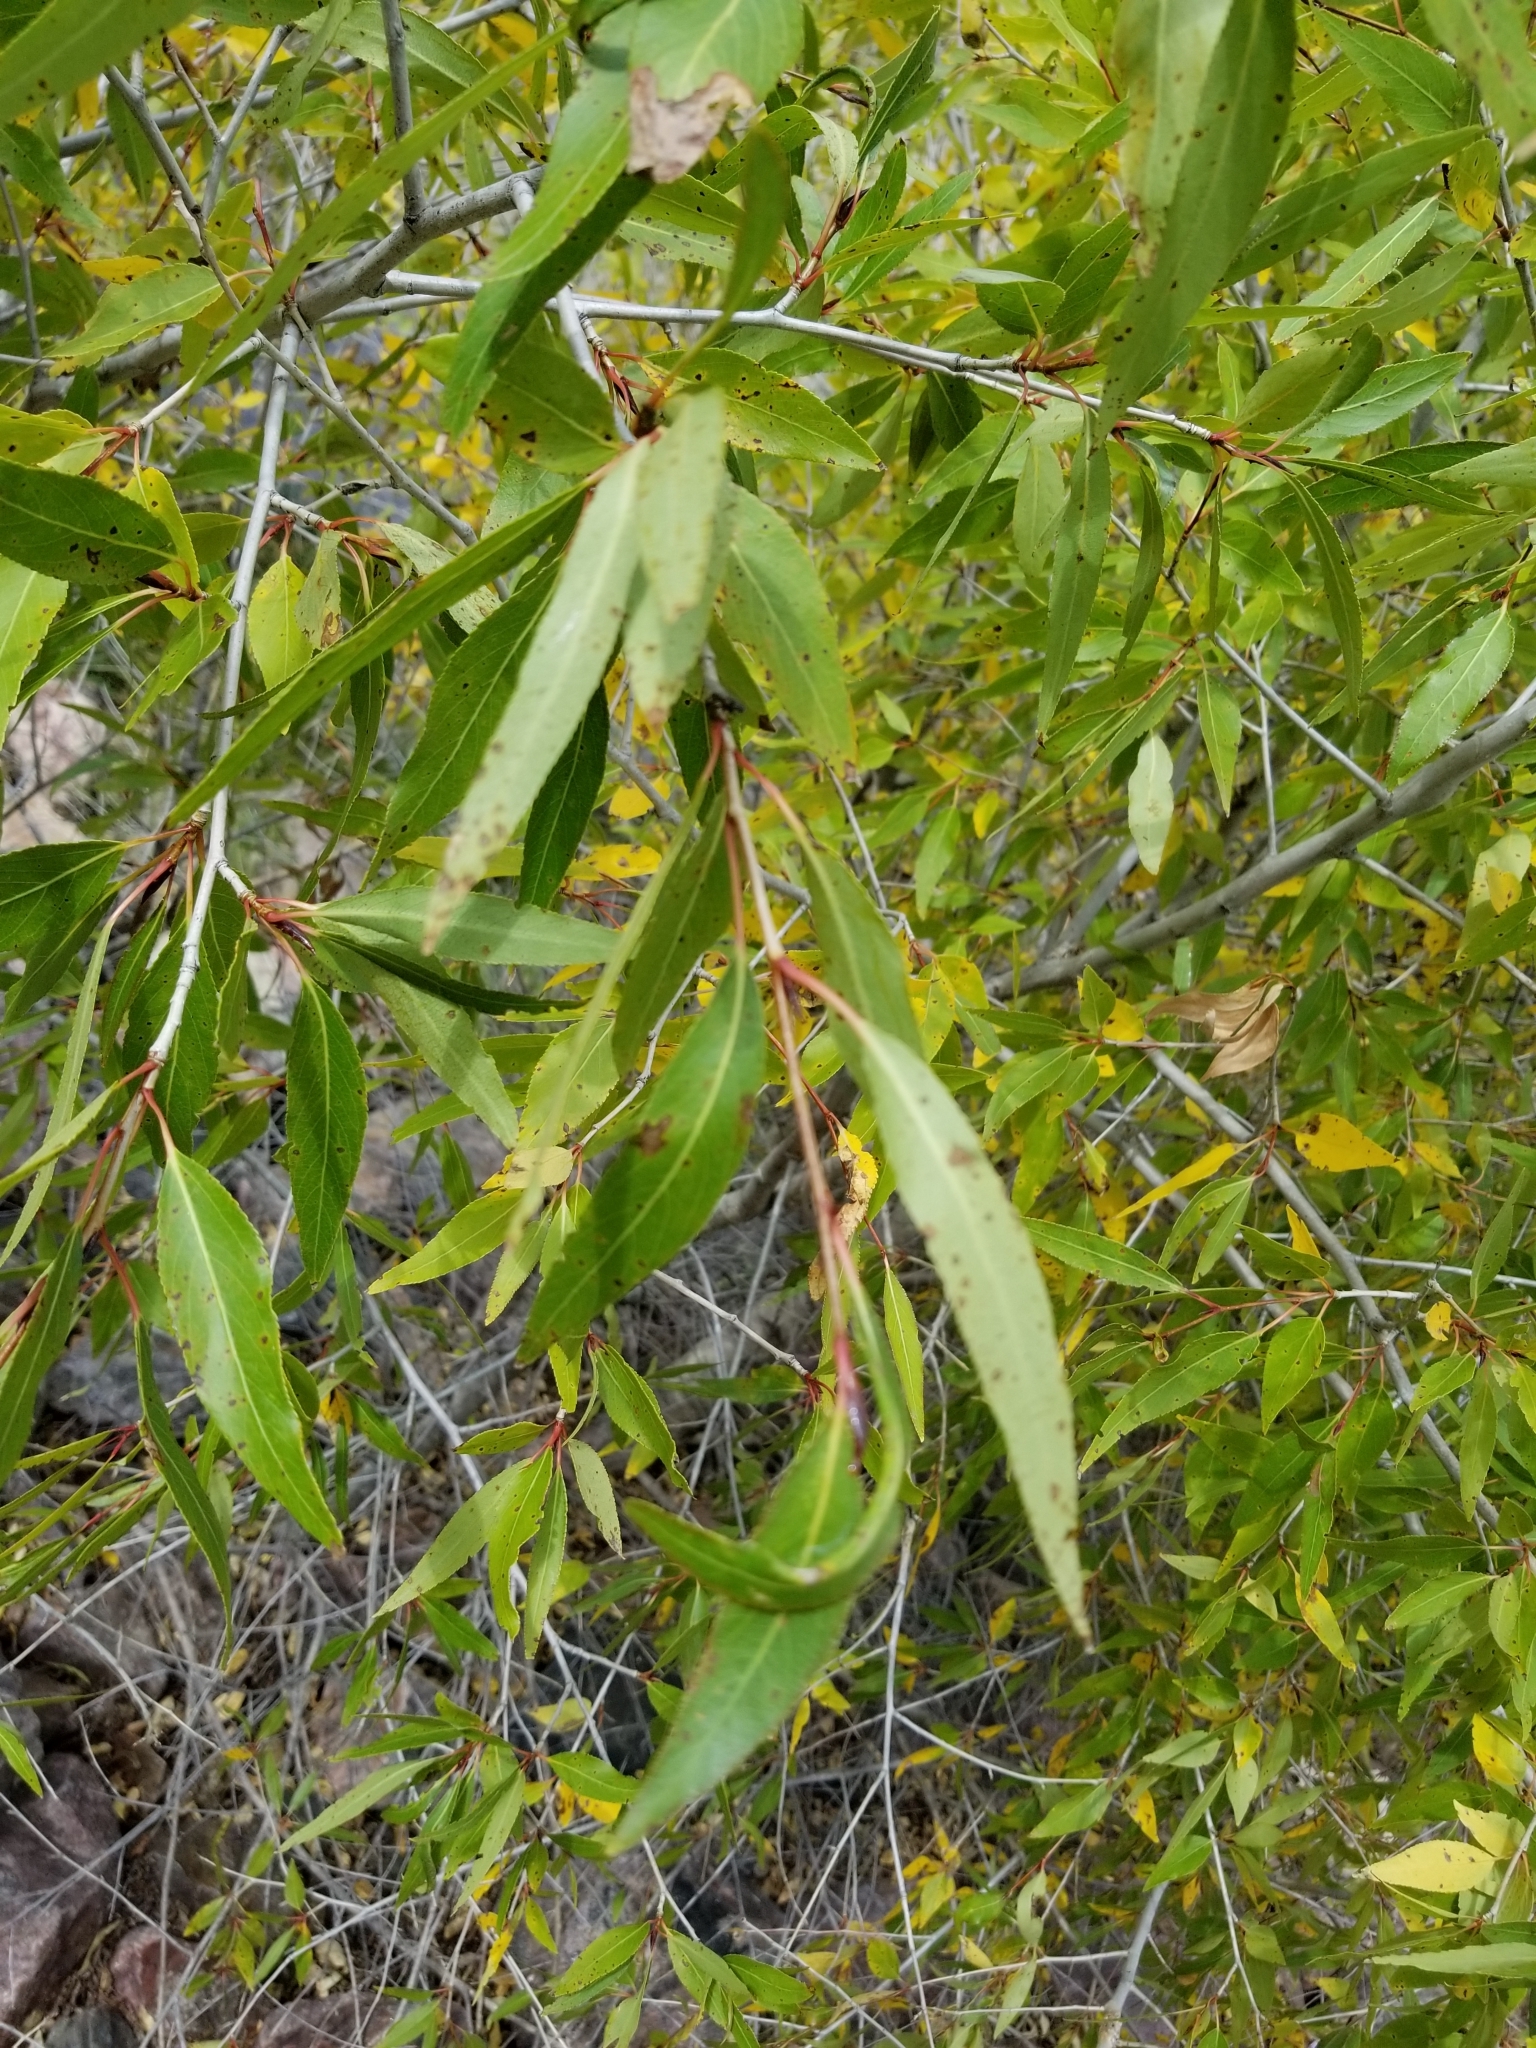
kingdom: Plantae
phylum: Tracheophyta
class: Magnoliopsida
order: Malpighiales
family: Salicaceae
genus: Populus
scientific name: Populus angustifolia
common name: Willow cottonwood
